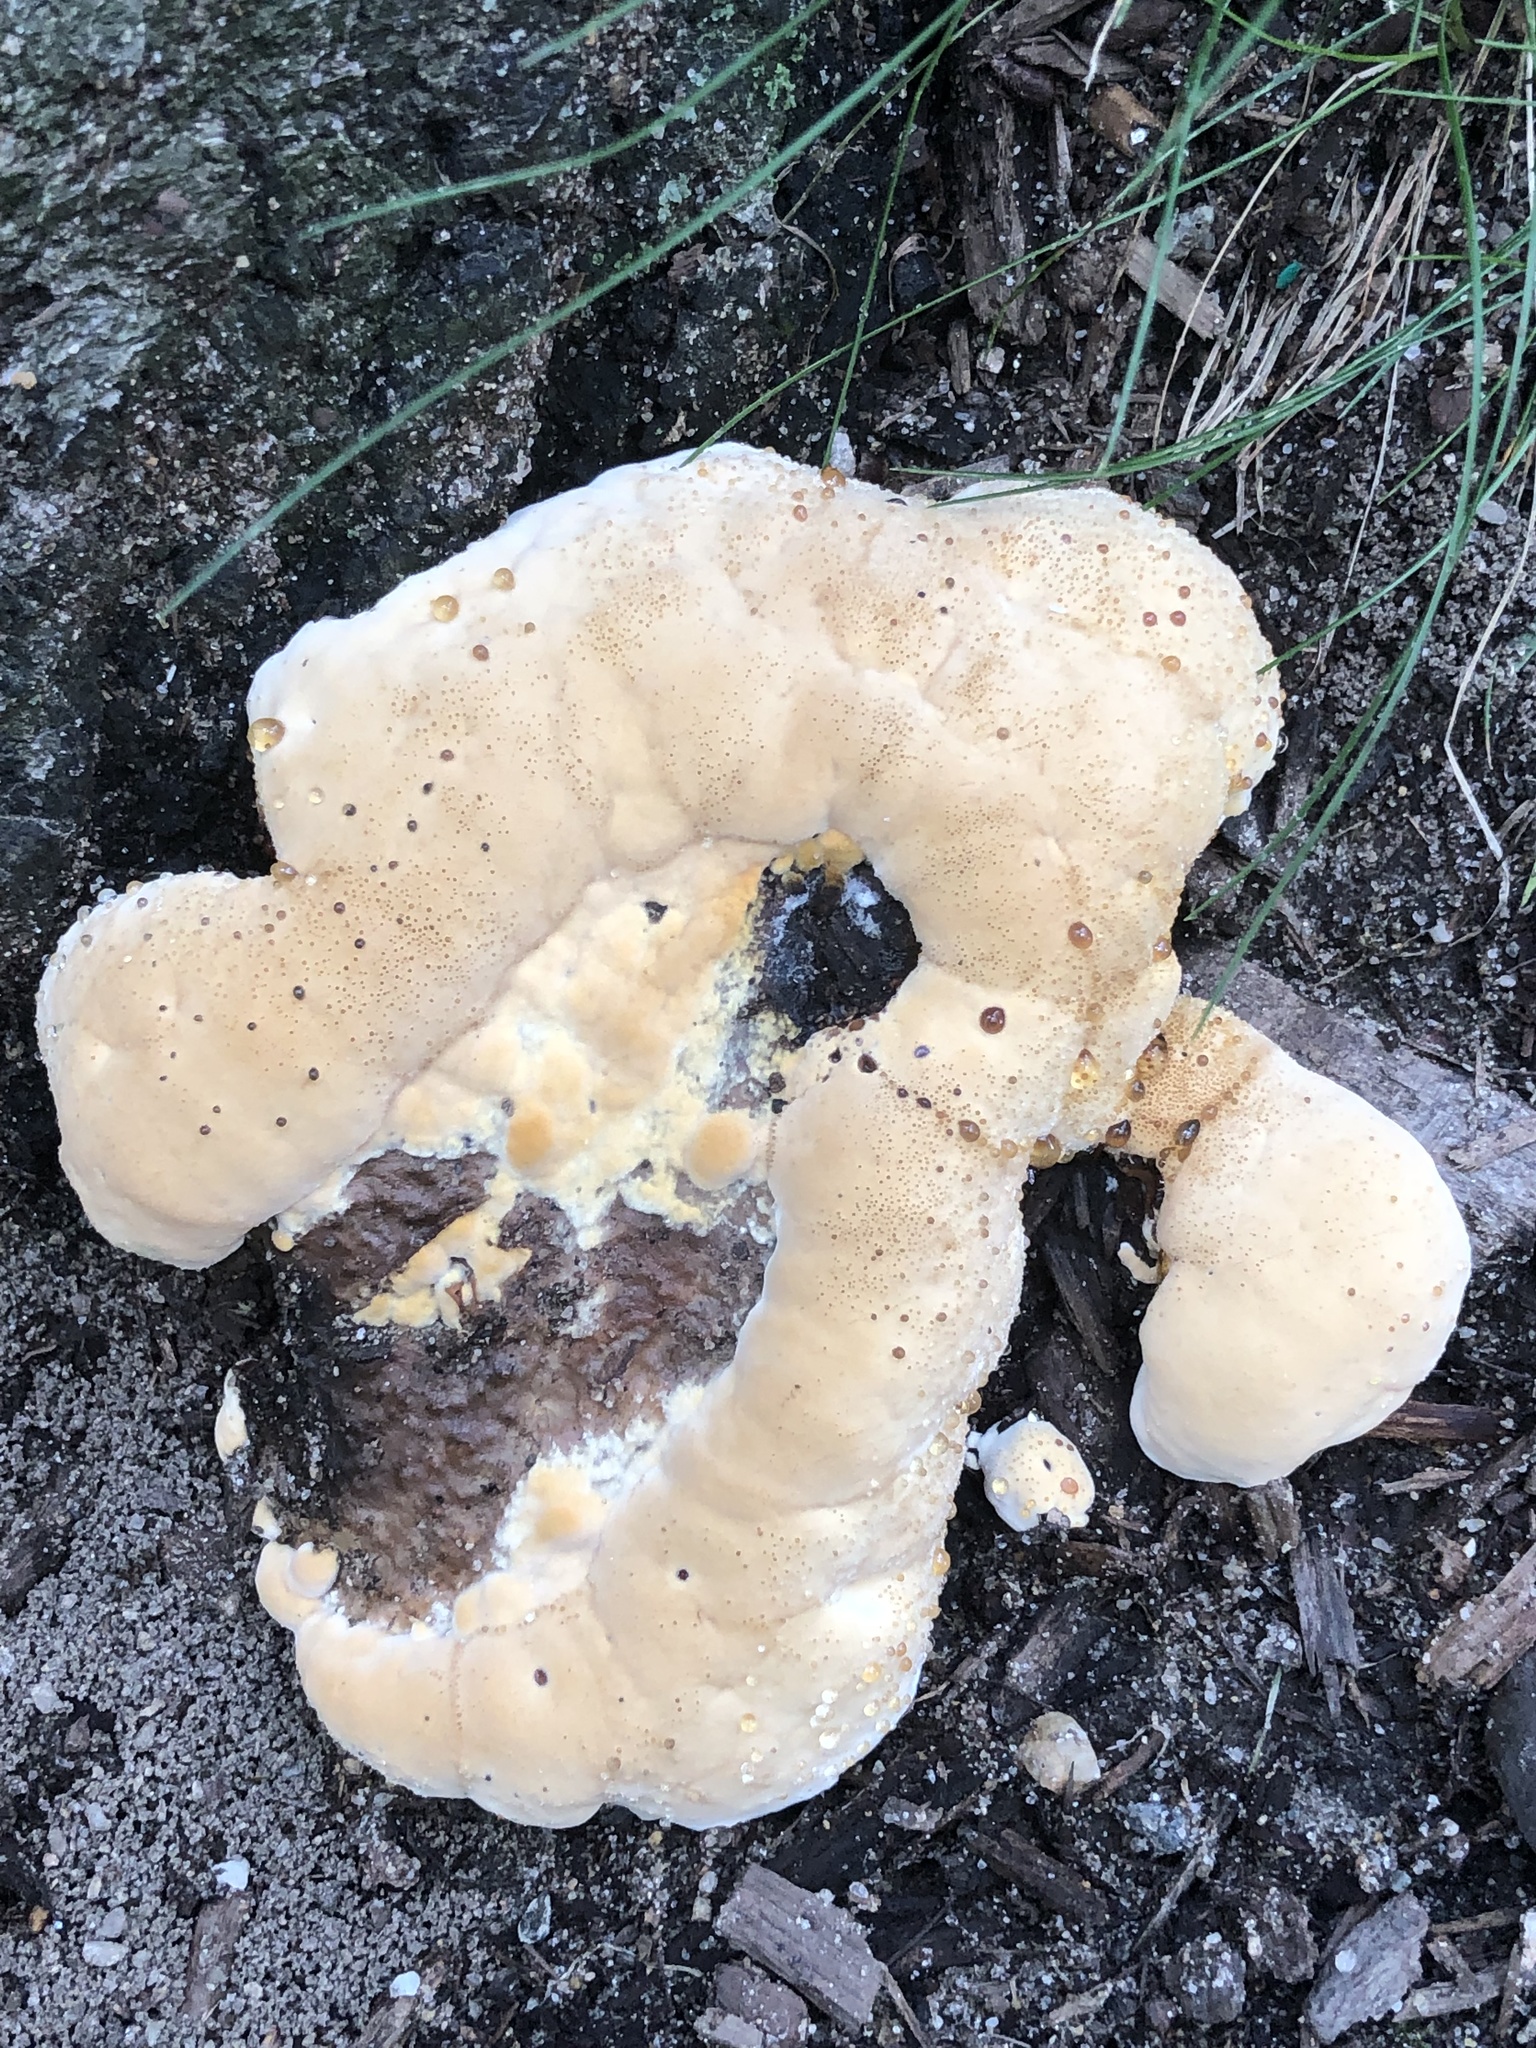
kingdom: Fungi
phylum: Basidiomycota
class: Agaricomycetes
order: Hymenochaetales
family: Hymenochaetaceae
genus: Pseudoinonotus
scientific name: Pseudoinonotus dryadeus
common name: Oak bracket
